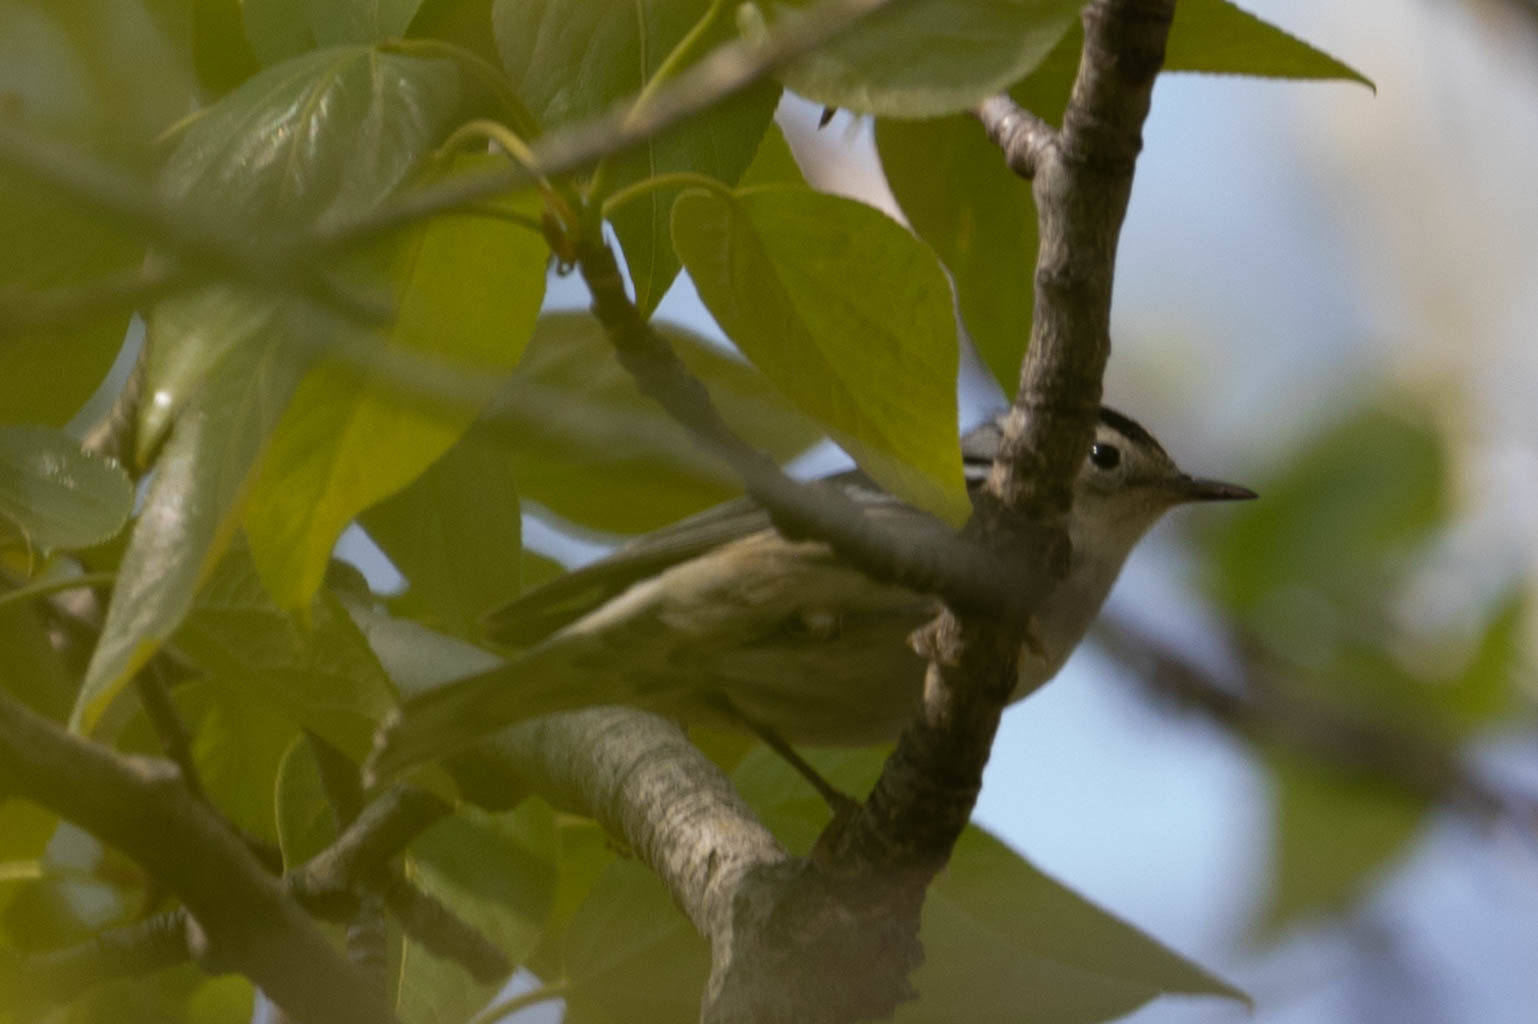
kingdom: Animalia
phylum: Chordata
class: Aves
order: Passeriformes
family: Parulidae
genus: Mniotilta
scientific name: Mniotilta varia
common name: Black-and-white warbler
